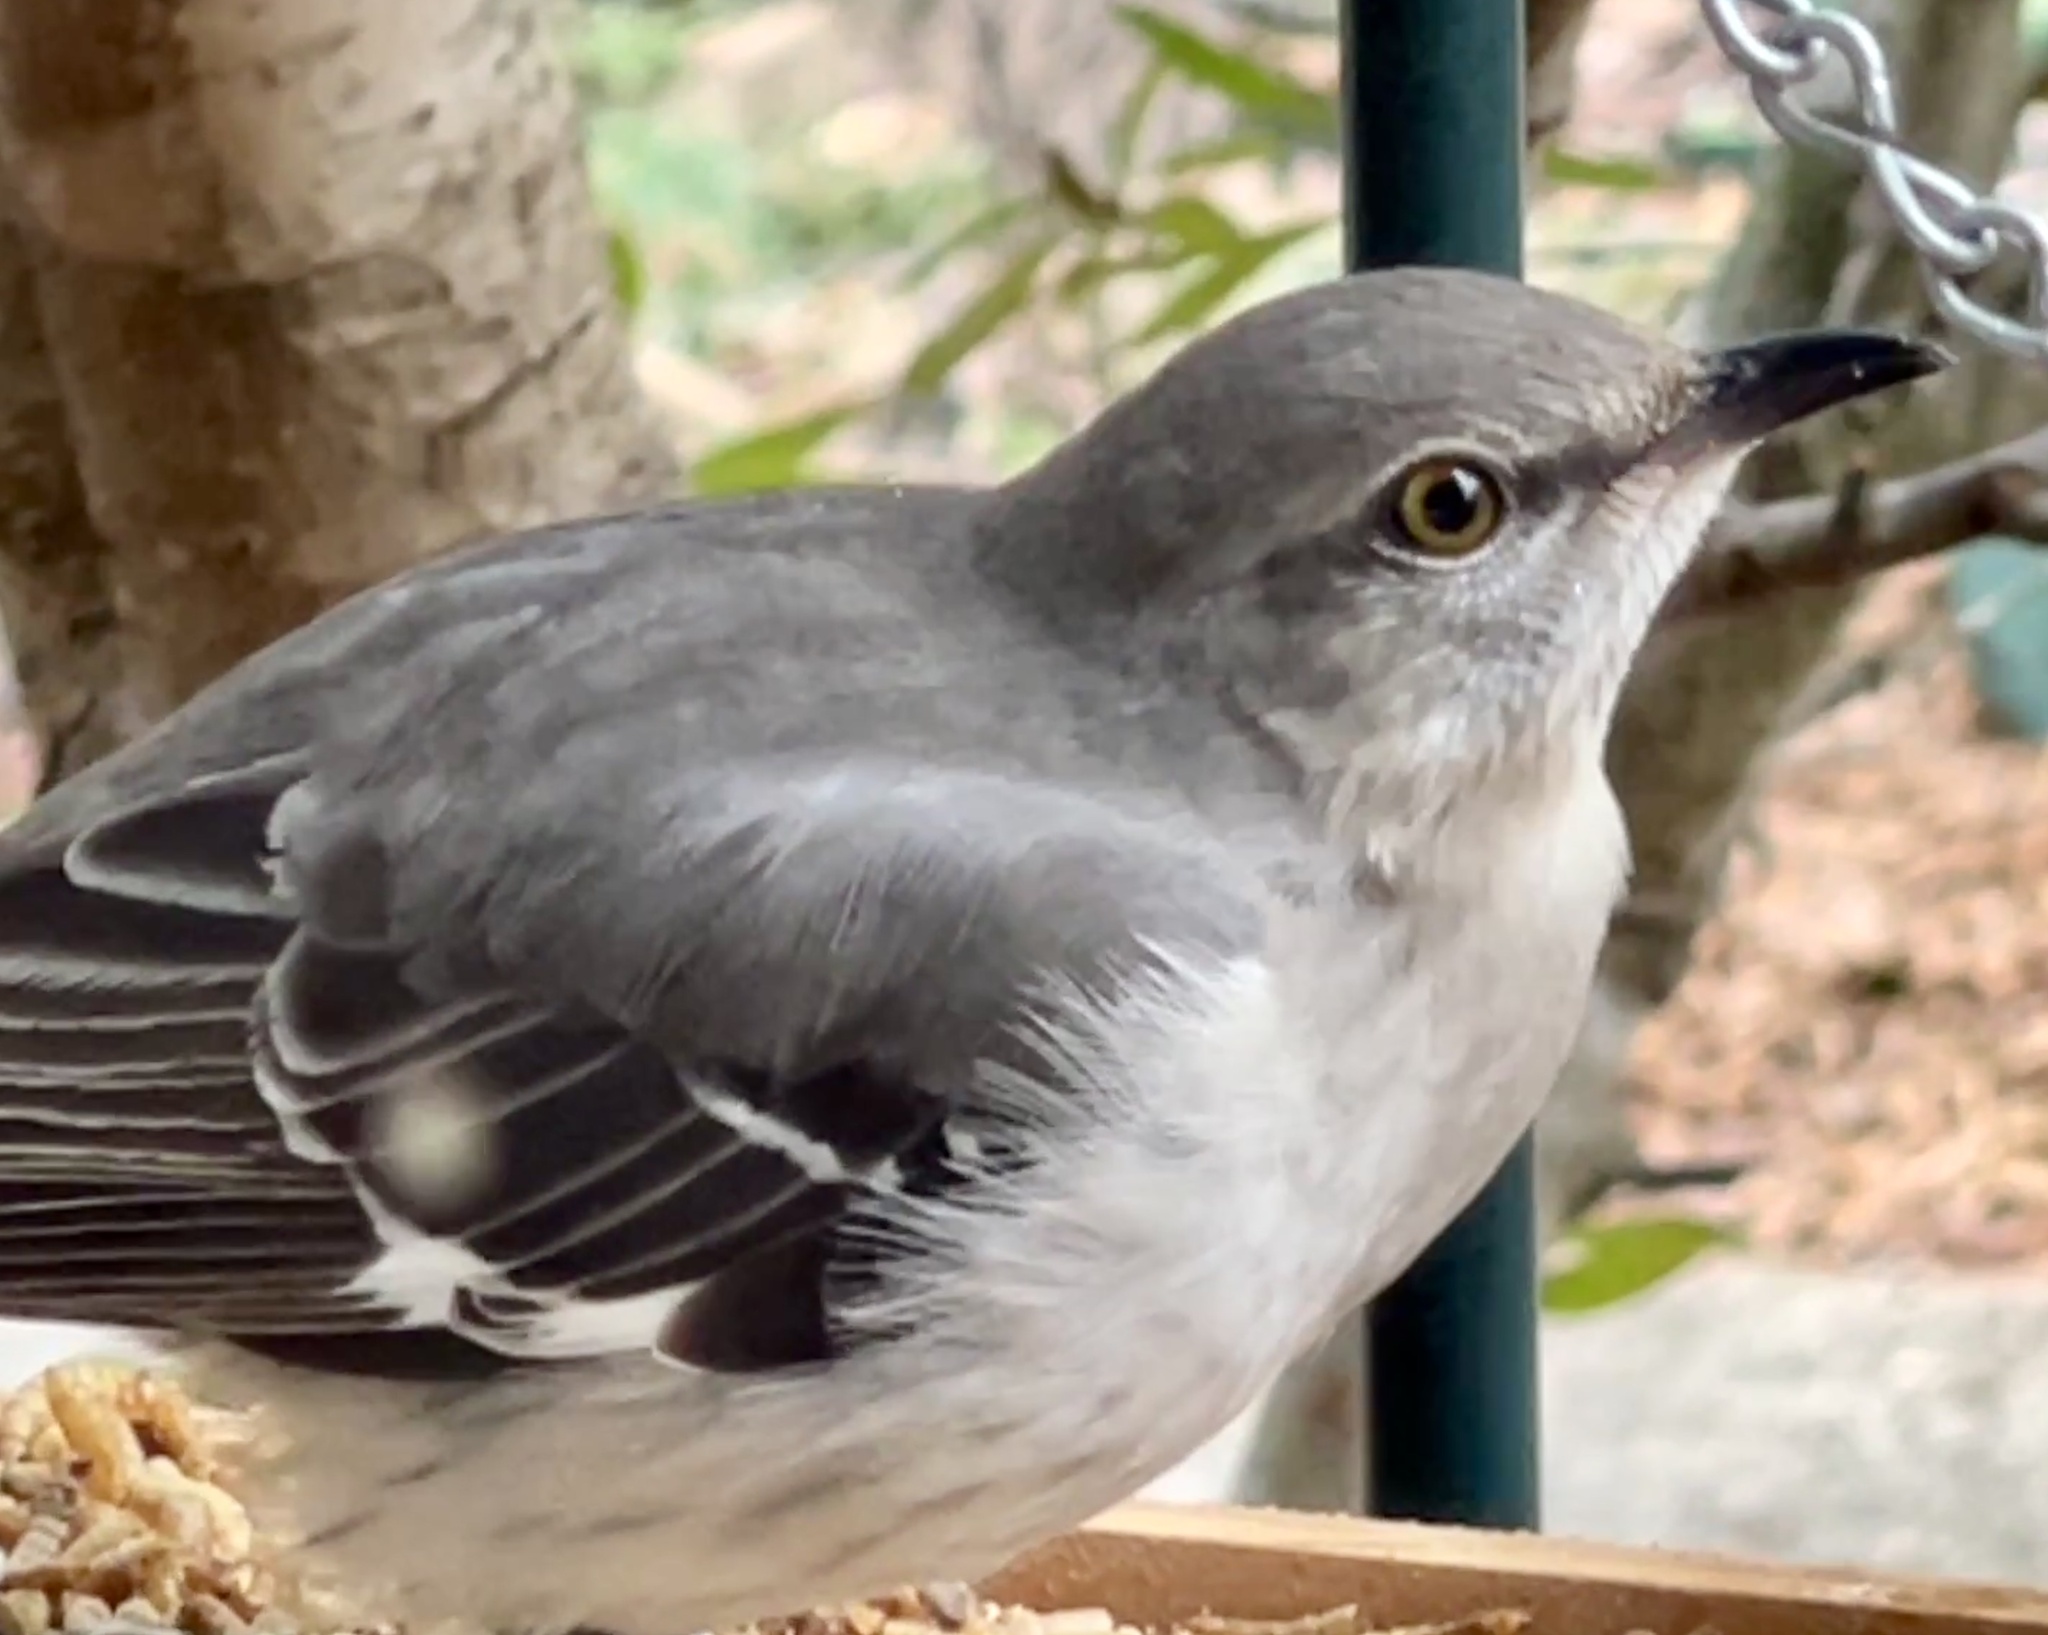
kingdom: Animalia
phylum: Chordata
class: Aves
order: Passeriformes
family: Mimidae
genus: Mimus
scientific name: Mimus polyglottos
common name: Northern mockingbird
